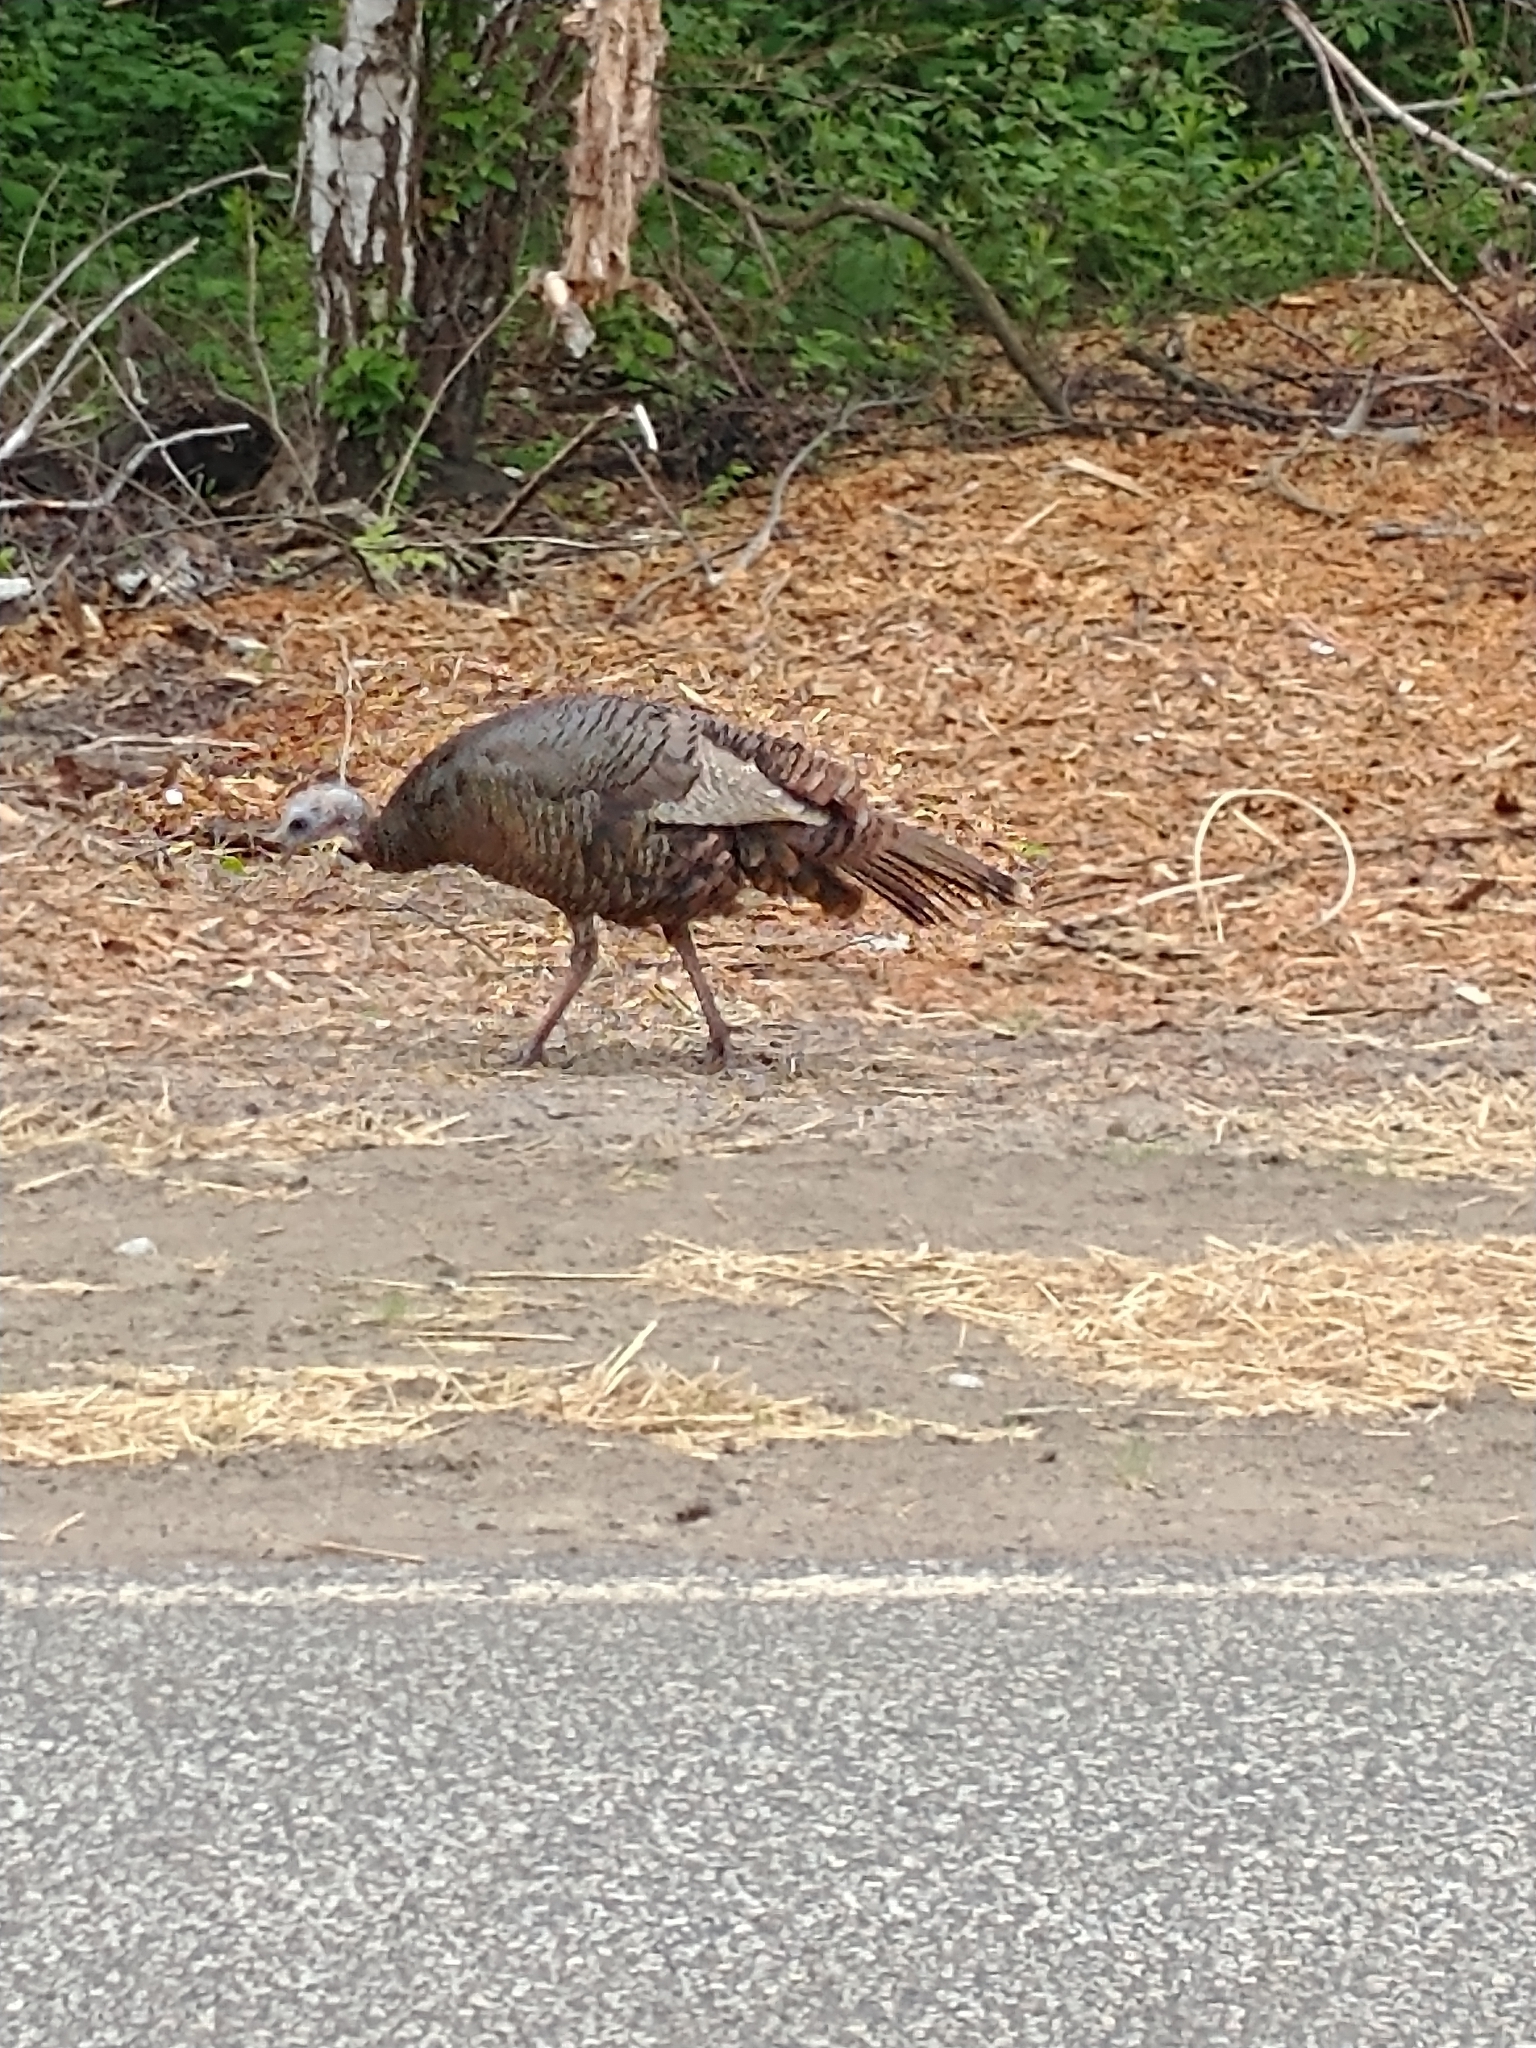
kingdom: Animalia
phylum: Chordata
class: Aves
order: Galliformes
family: Phasianidae
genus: Meleagris
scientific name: Meleagris gallopavo
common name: Wild turkey
